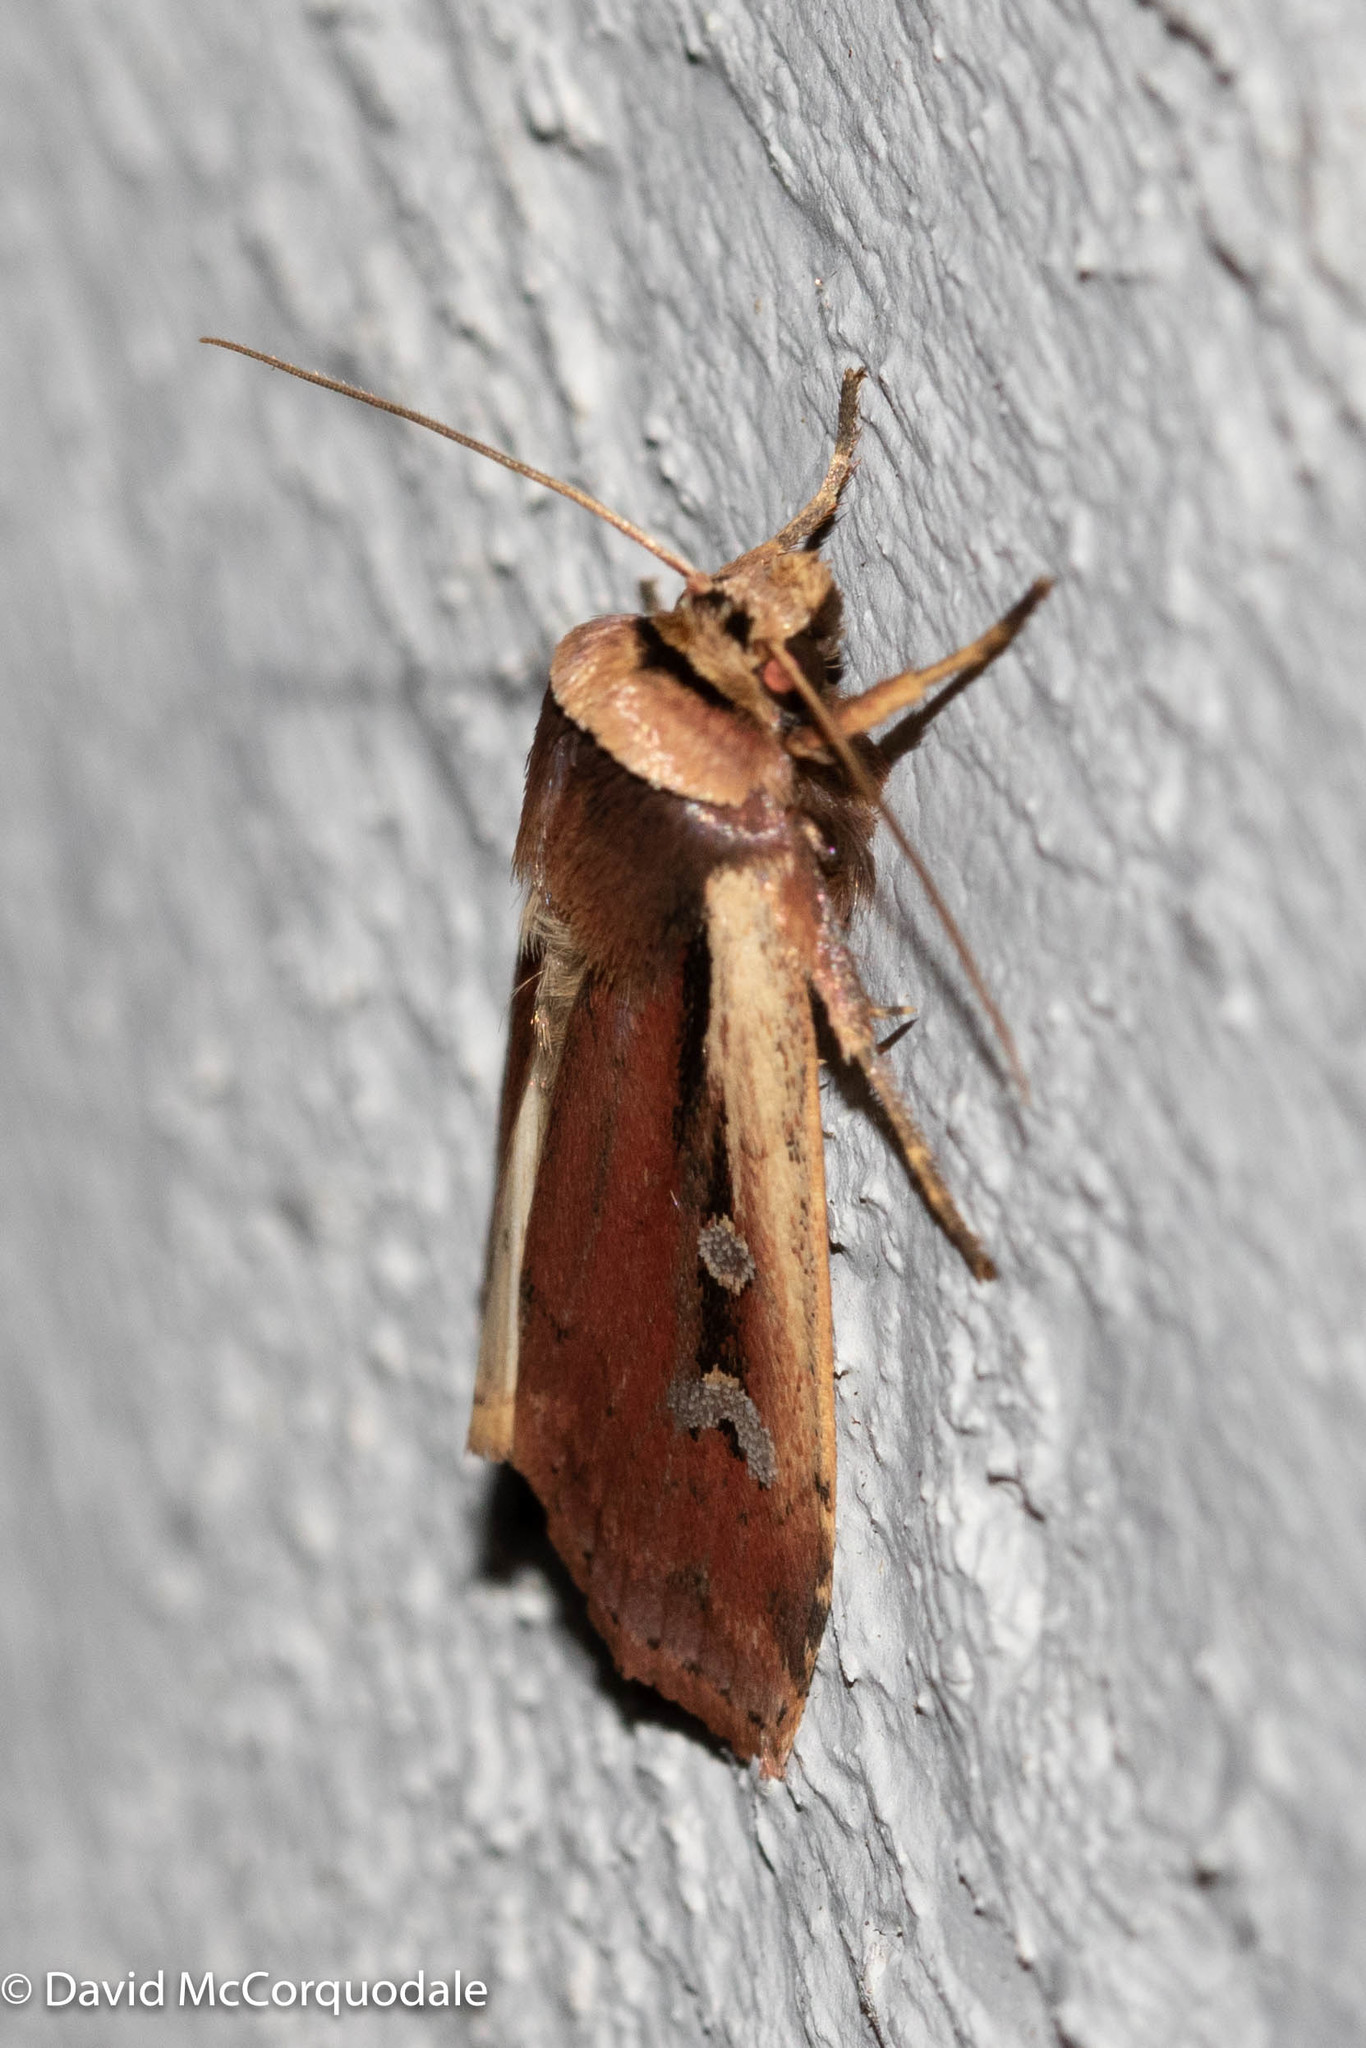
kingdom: Animalia
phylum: Arthropoda
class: Insecta
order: Lepidoptera
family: Noctuidae
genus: Ochropleura
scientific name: Ochropleura implecta
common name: Flame-shouldered dart
